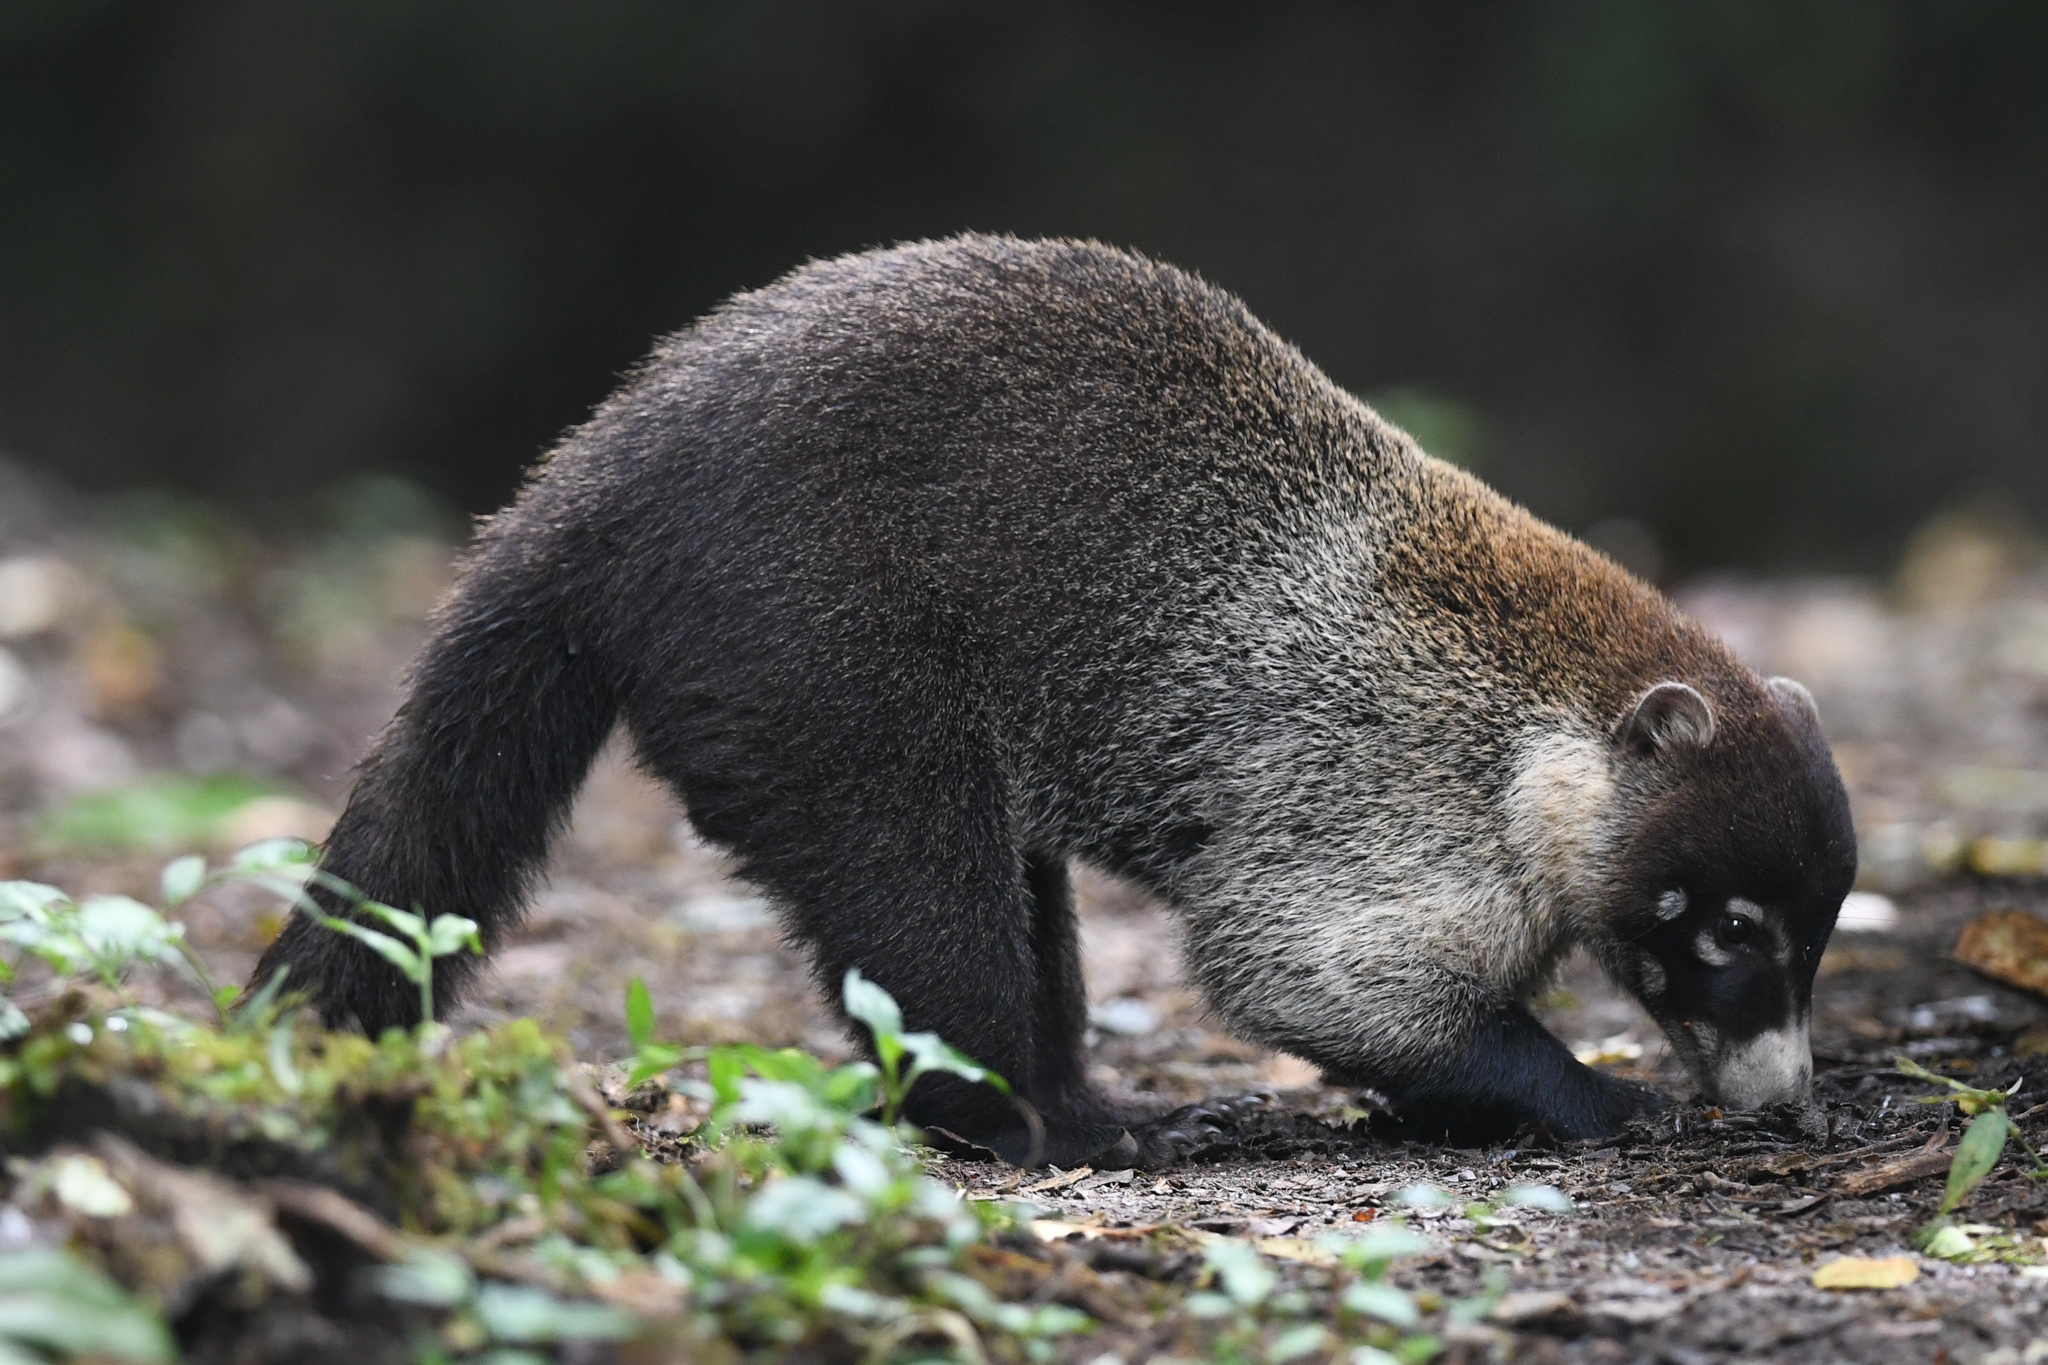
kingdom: Animalia
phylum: Chordata
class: Mammalia
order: Carnivora
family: Procyonidae
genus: Nasua
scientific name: Nasua narica
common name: White-nosed coati
